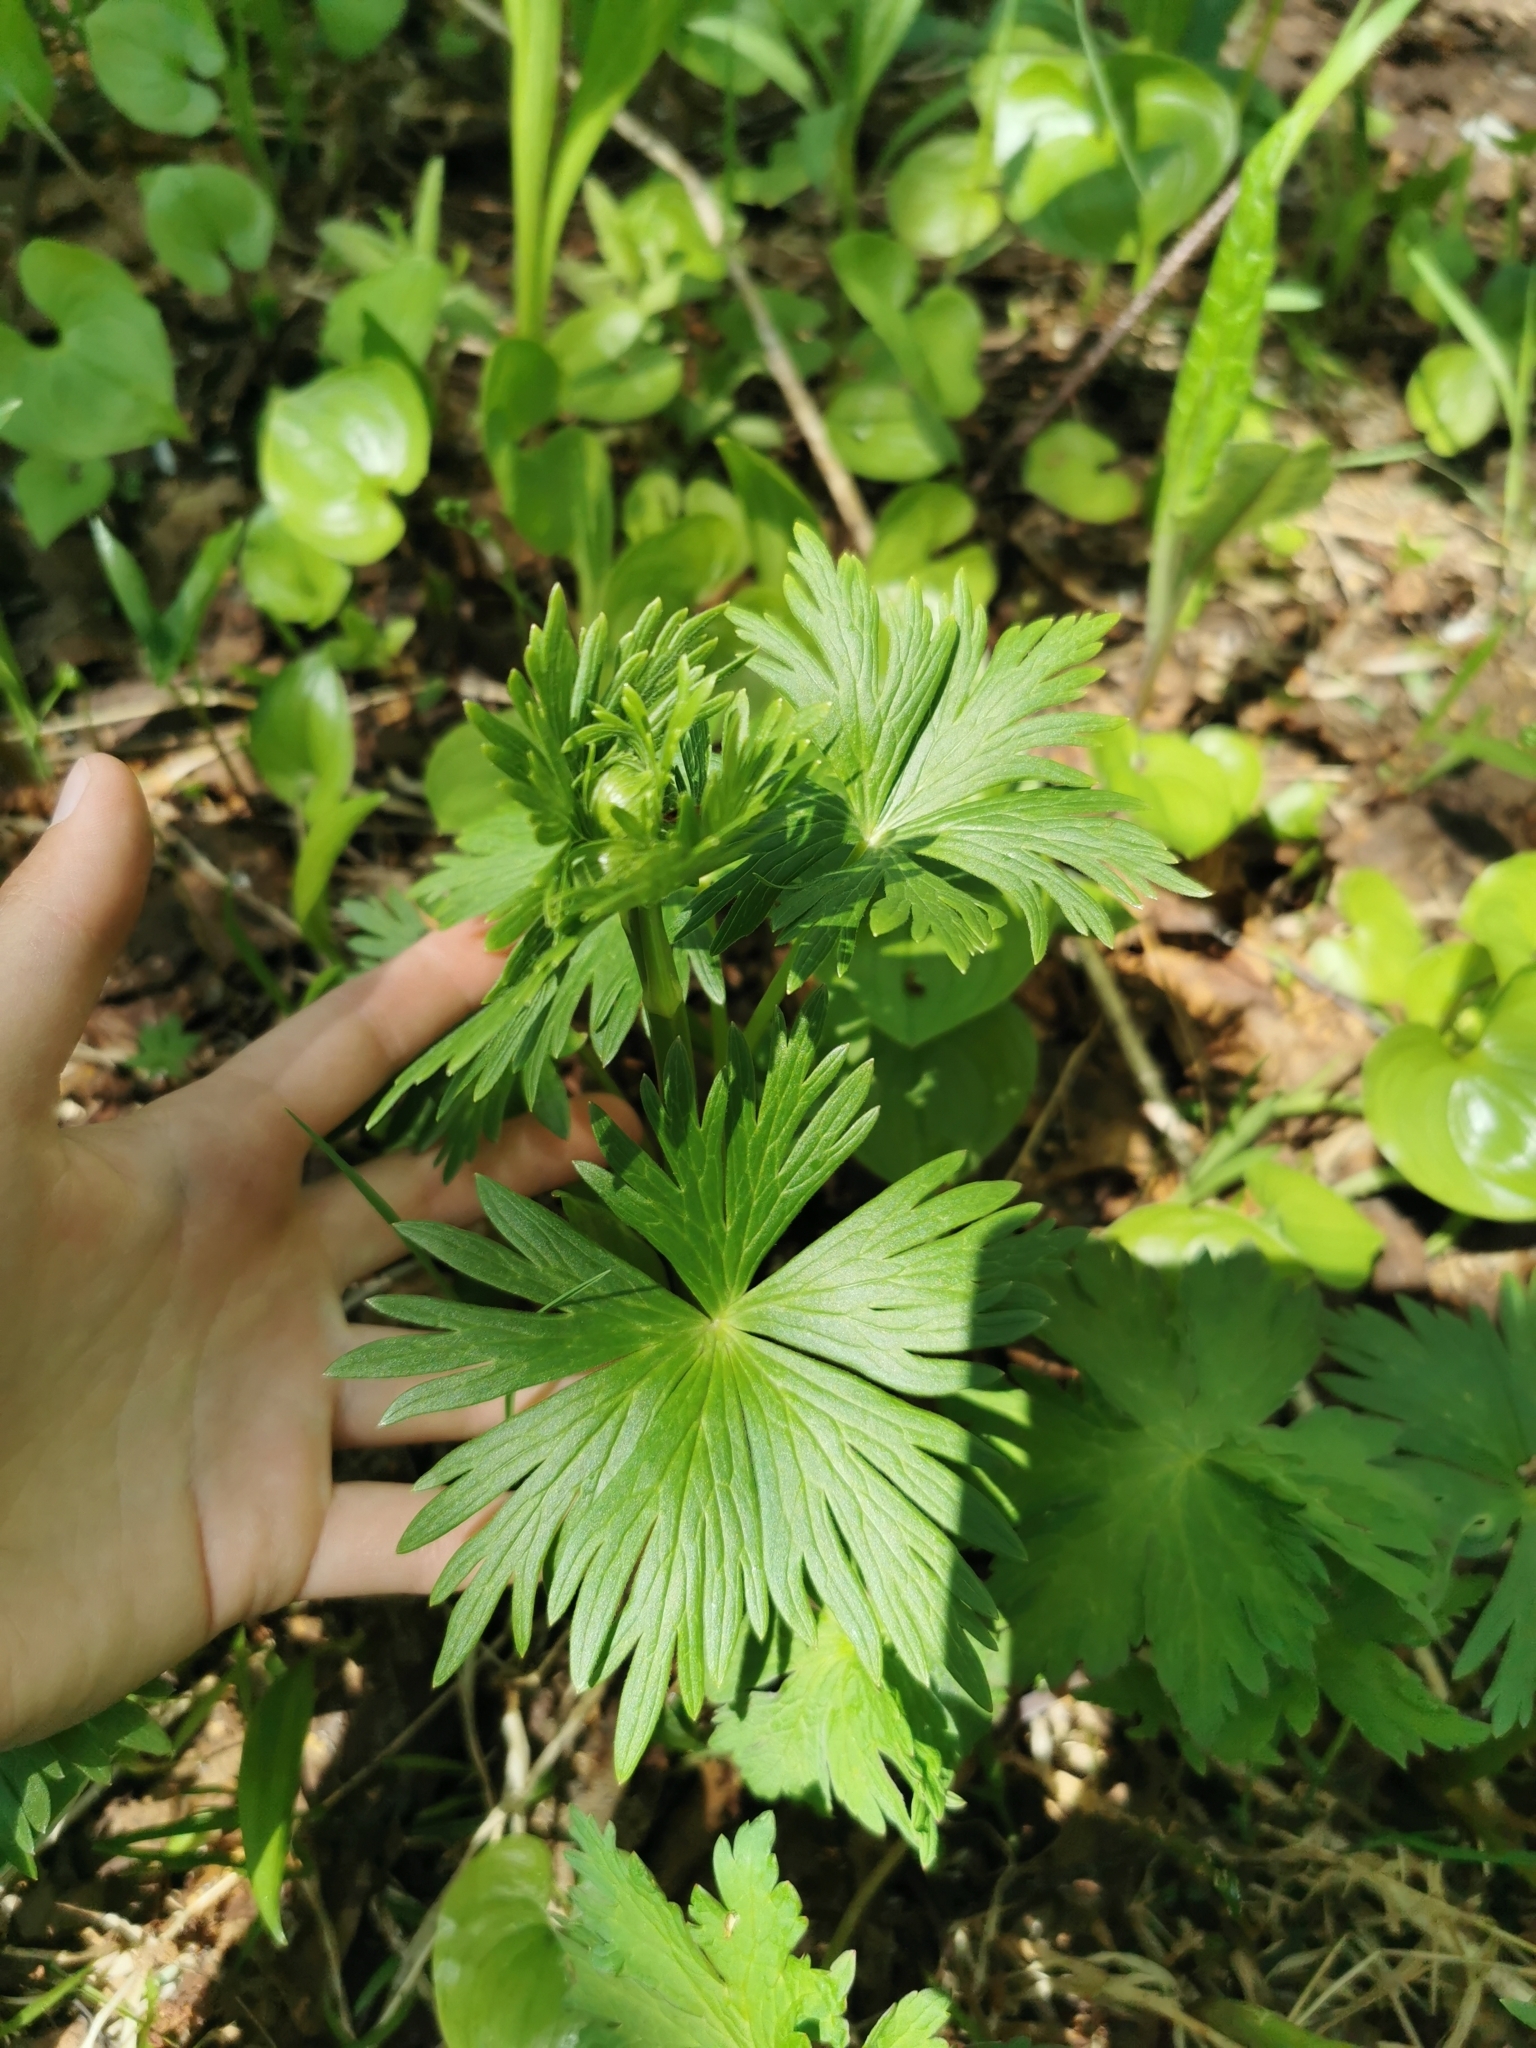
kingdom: Plantae
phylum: Tracheophyta
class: Magnoliopsida
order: Ranunculales
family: Ranunculaceae
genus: Trollius
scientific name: Trollius riederianus
